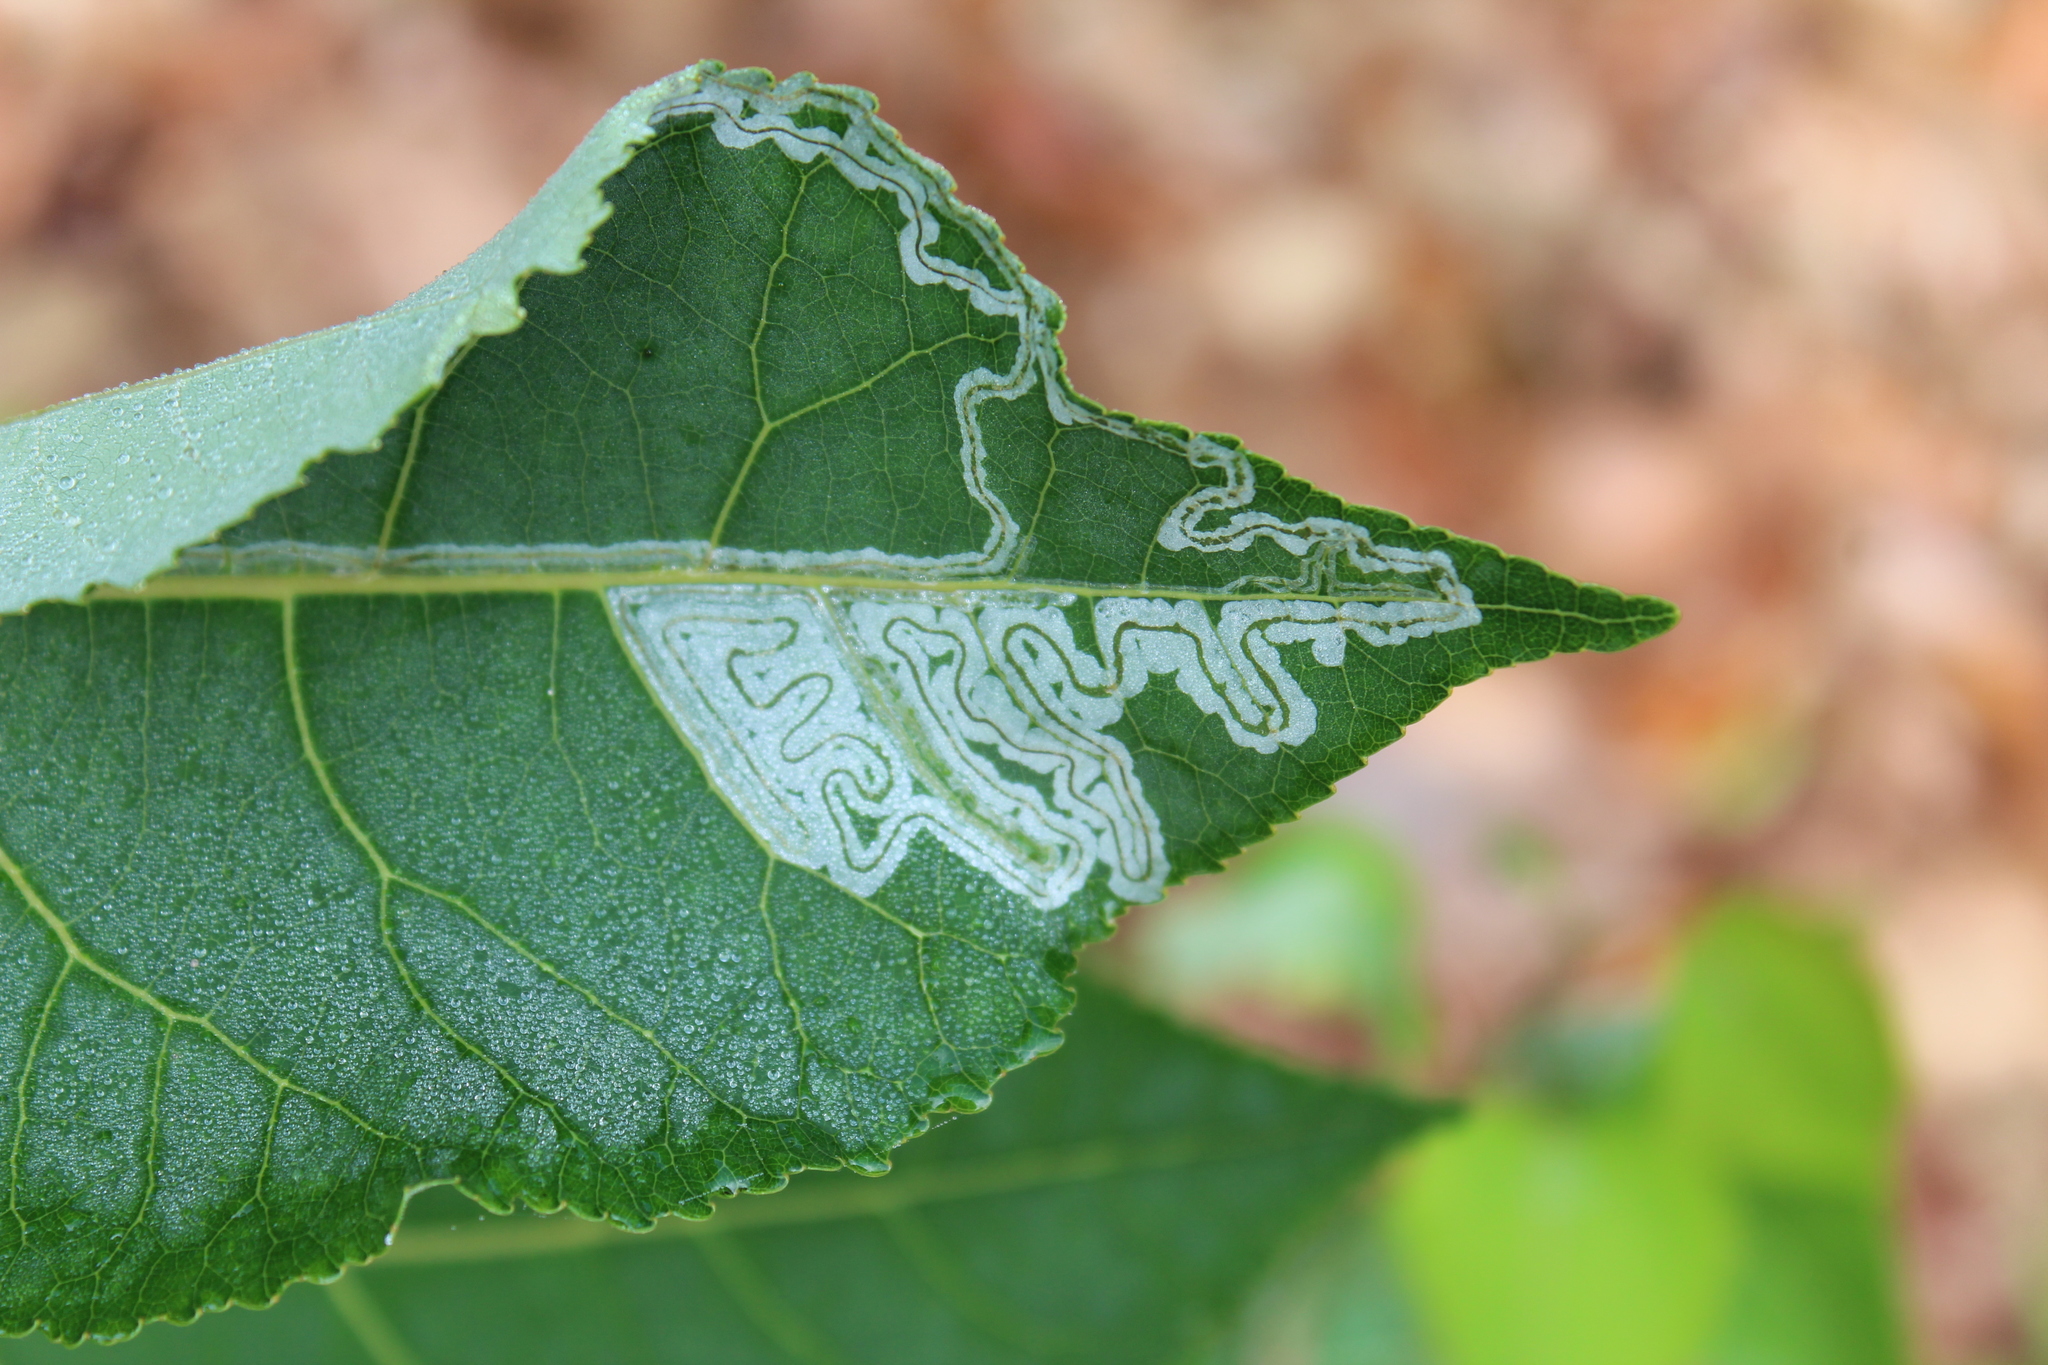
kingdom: Animalia
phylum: Arthropoda
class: Insecta
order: Lepidoptera
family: Gracillariidae
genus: Phyllocnistis
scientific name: Phyllocnistis populiella
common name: Aspen serpentine leafminer moth
